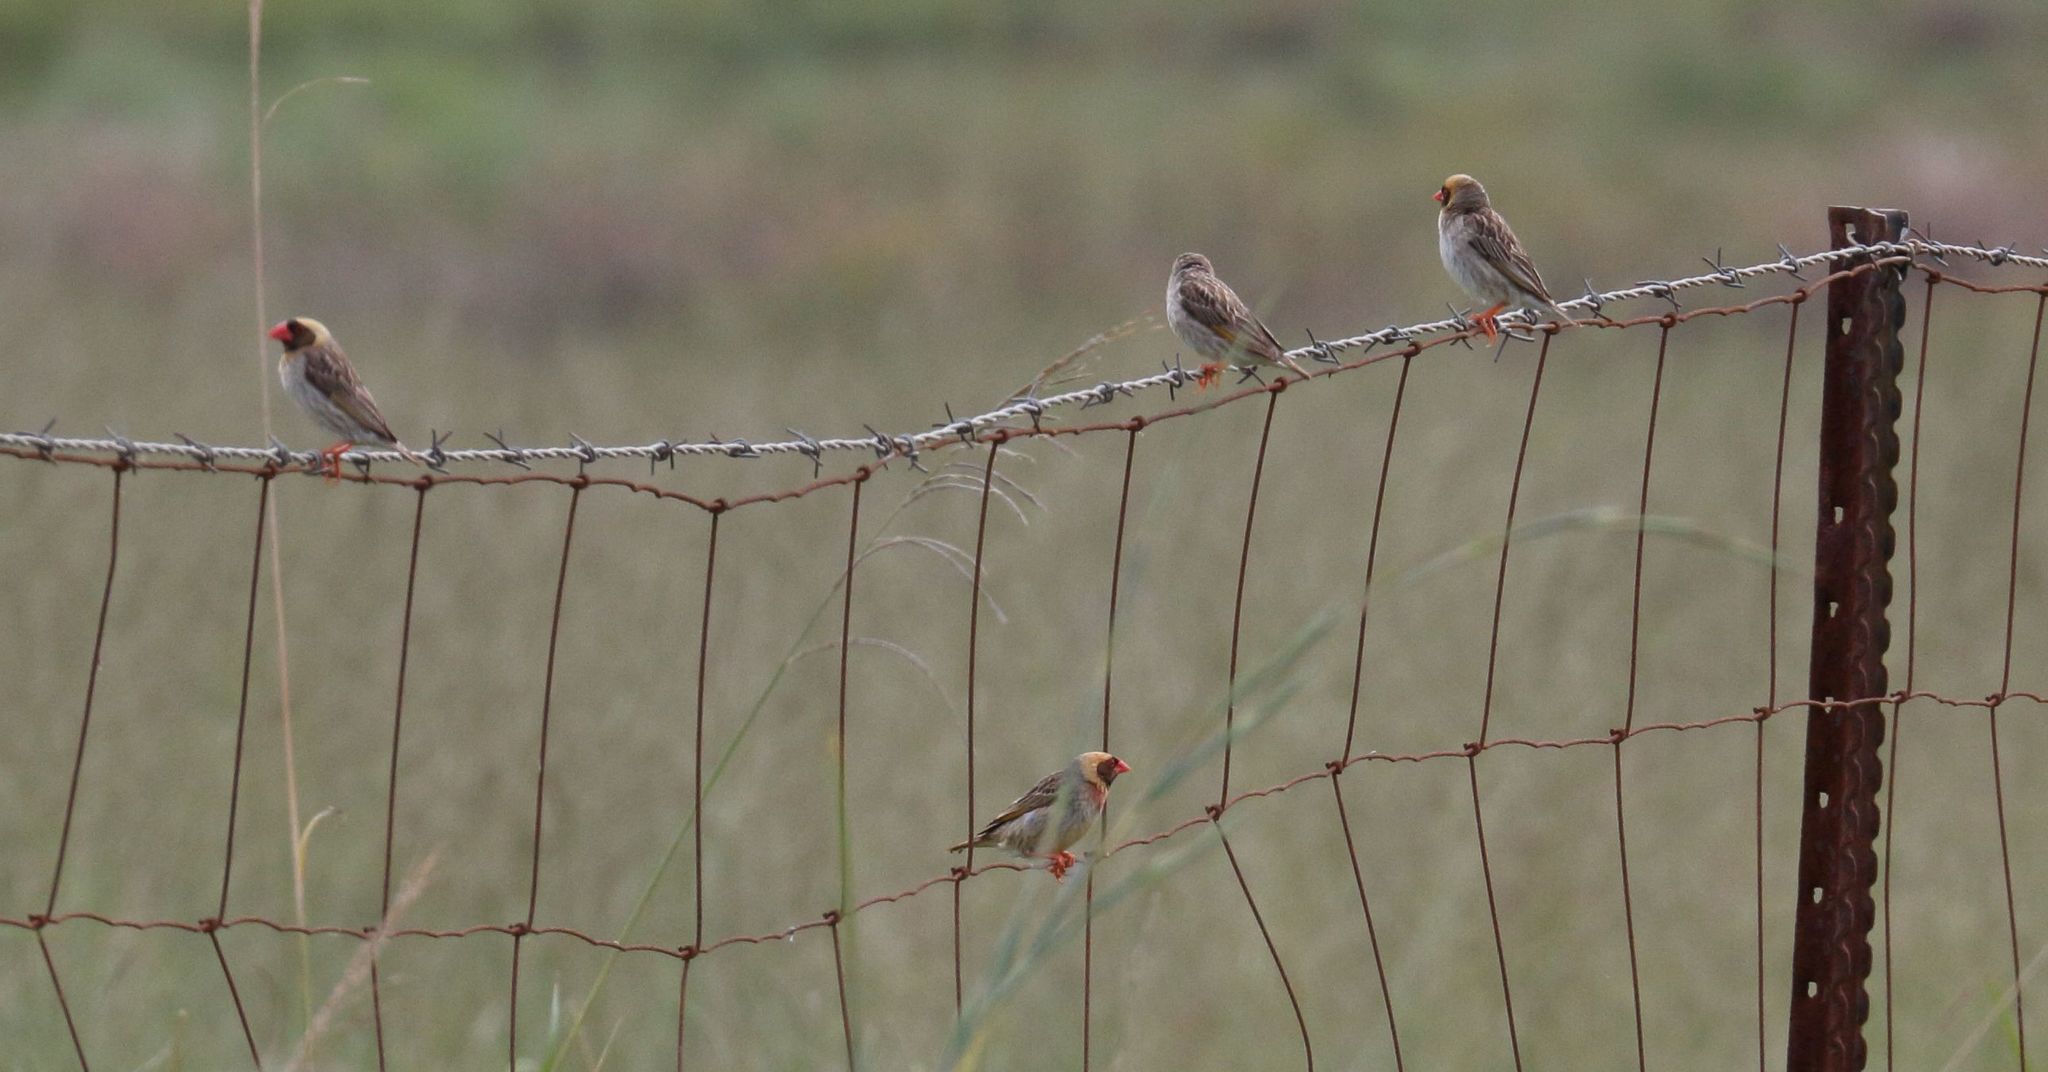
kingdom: Animalia
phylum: Chordata
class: Aves
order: Passeriformes
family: Ploceidae
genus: Quelea
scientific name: Quelea quelea
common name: Red-billed quelea
